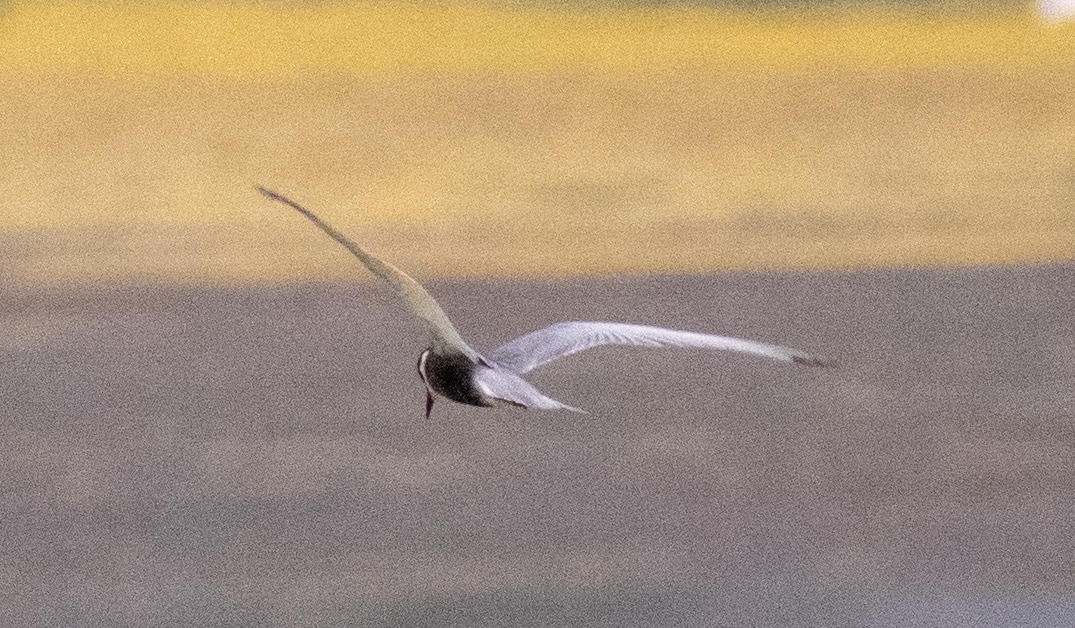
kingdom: Animalia
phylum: Chordata
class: Aves
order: Charadriiformes
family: Laridae
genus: Chlidonias
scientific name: Chlidonias hybrida
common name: Whiskered tern
